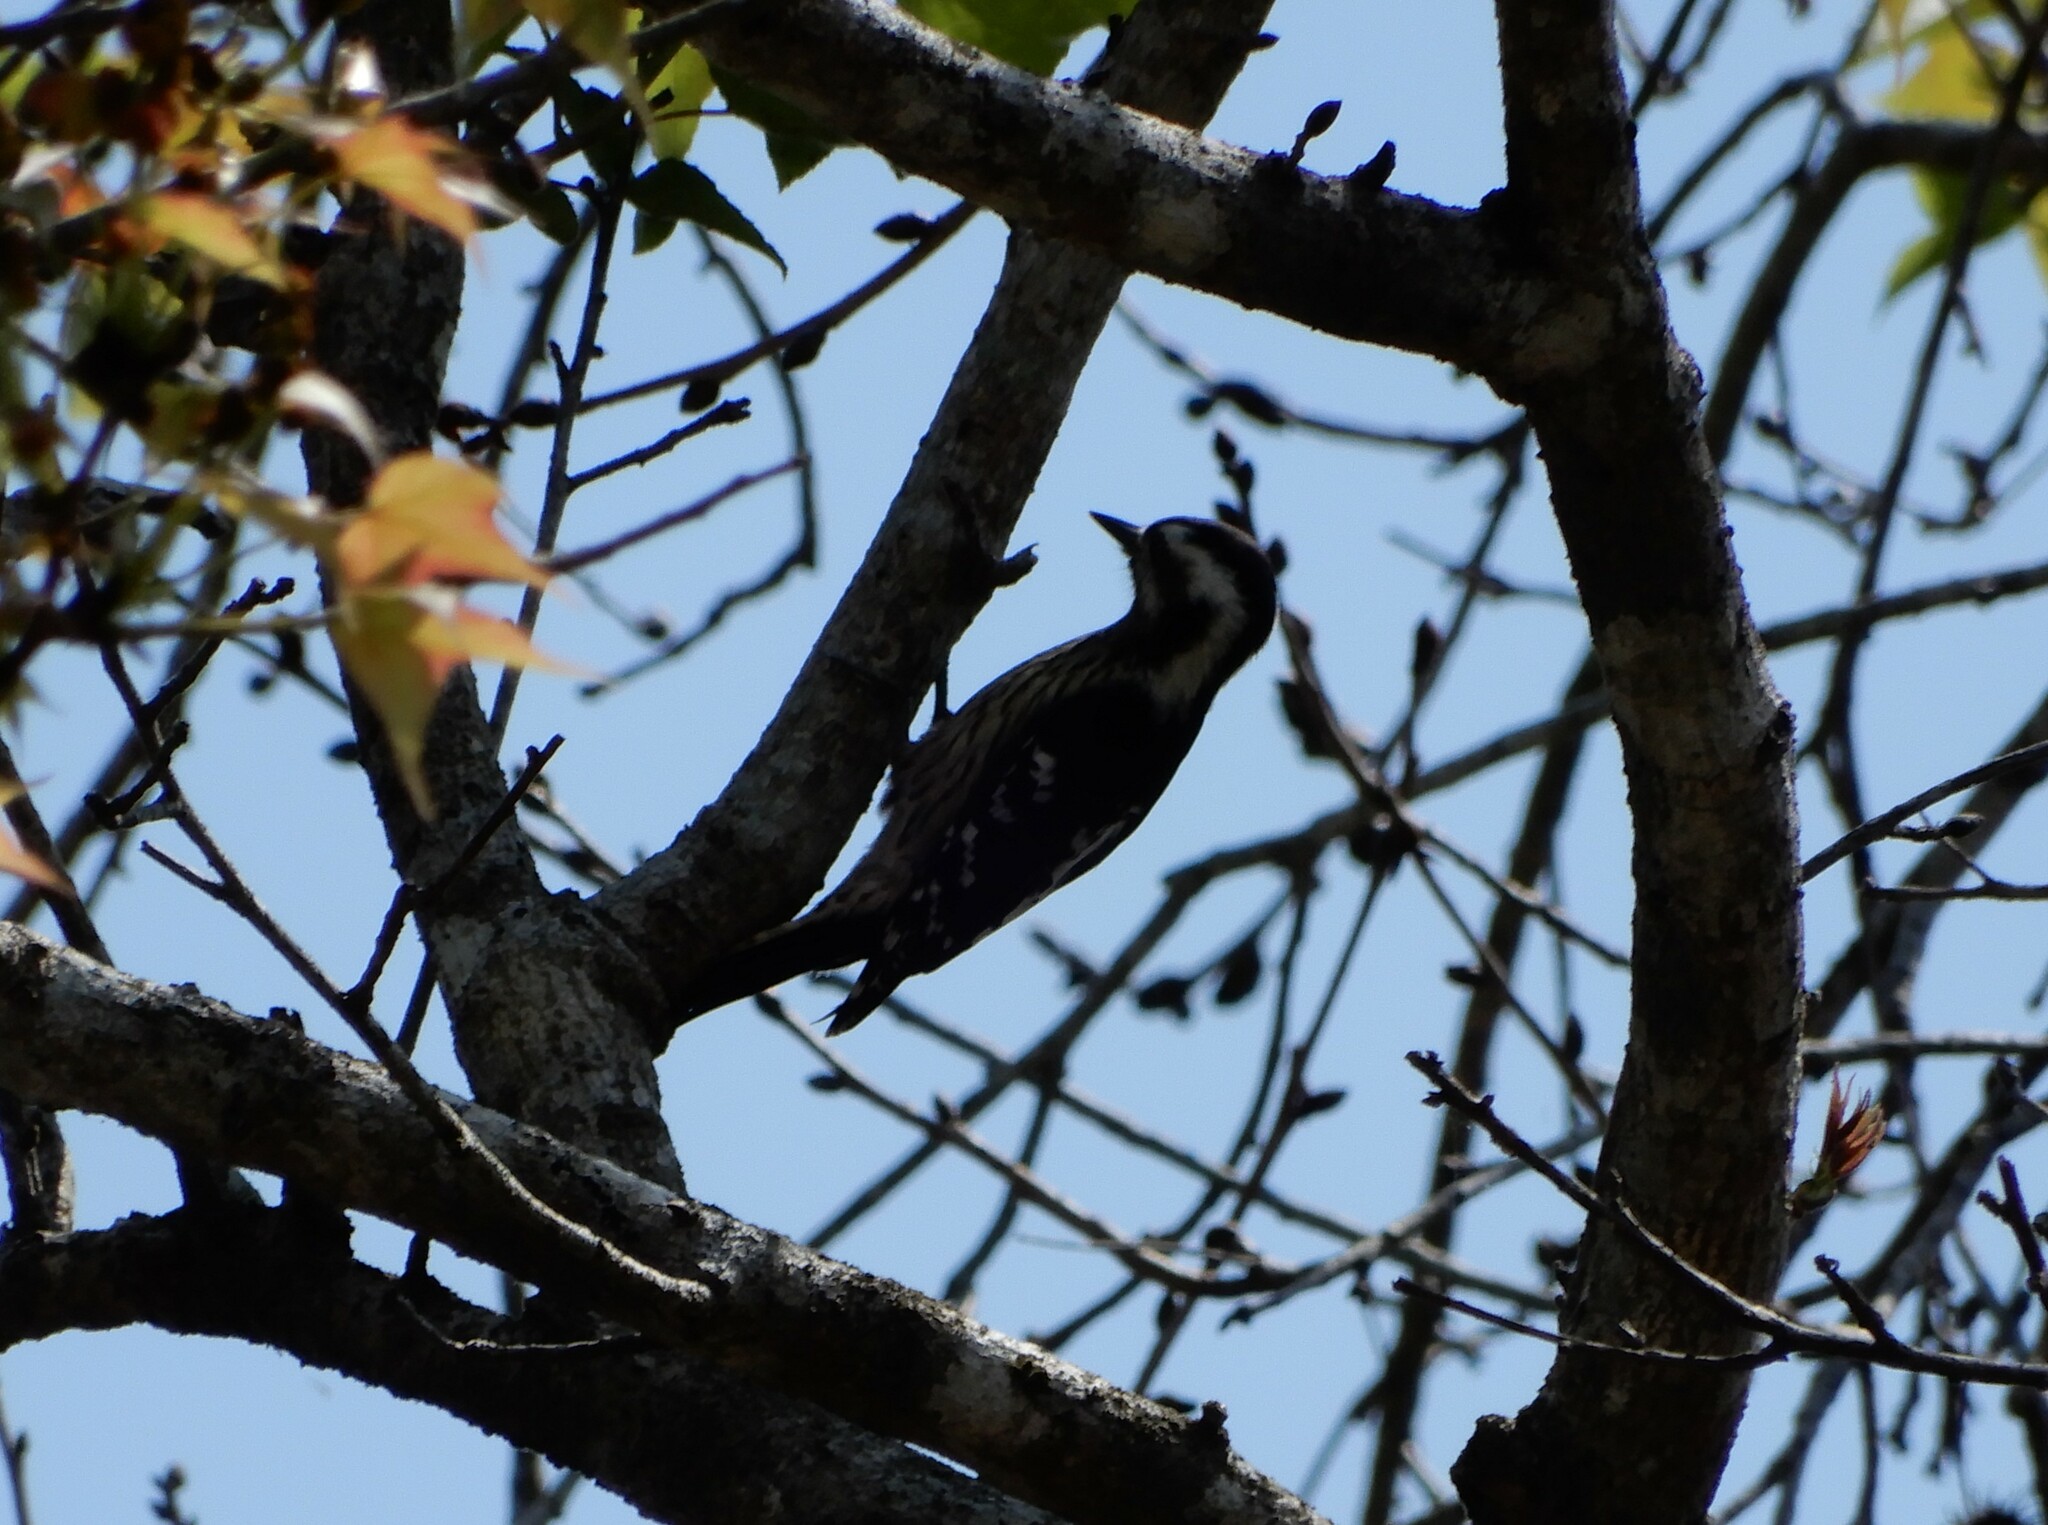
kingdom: Animalia
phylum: Chordata
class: Aves
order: Piciformes
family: Picidae
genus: Yungipicus
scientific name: Yungipicus canicapillus
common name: Grey-capped pygmy woodpecker
